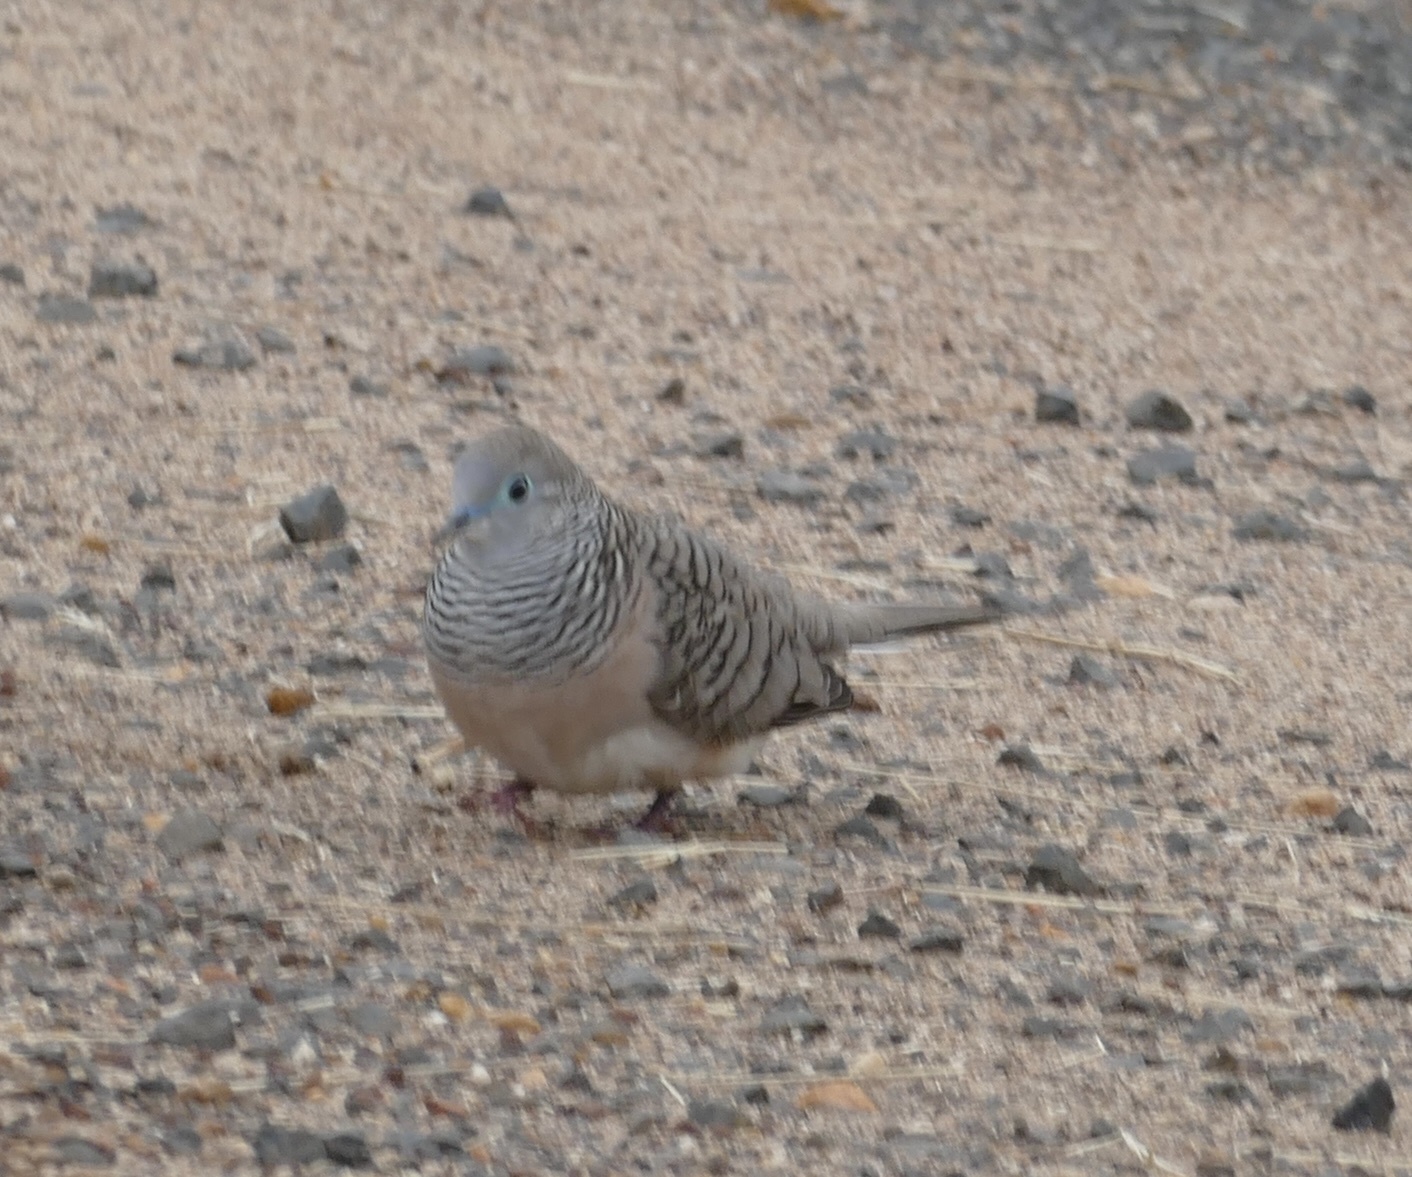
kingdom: Animalia
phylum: Chordata
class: Aves
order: Columbiformes
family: Columbidae
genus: Geopelia
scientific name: Geopelia placida
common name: Peaceful dove
